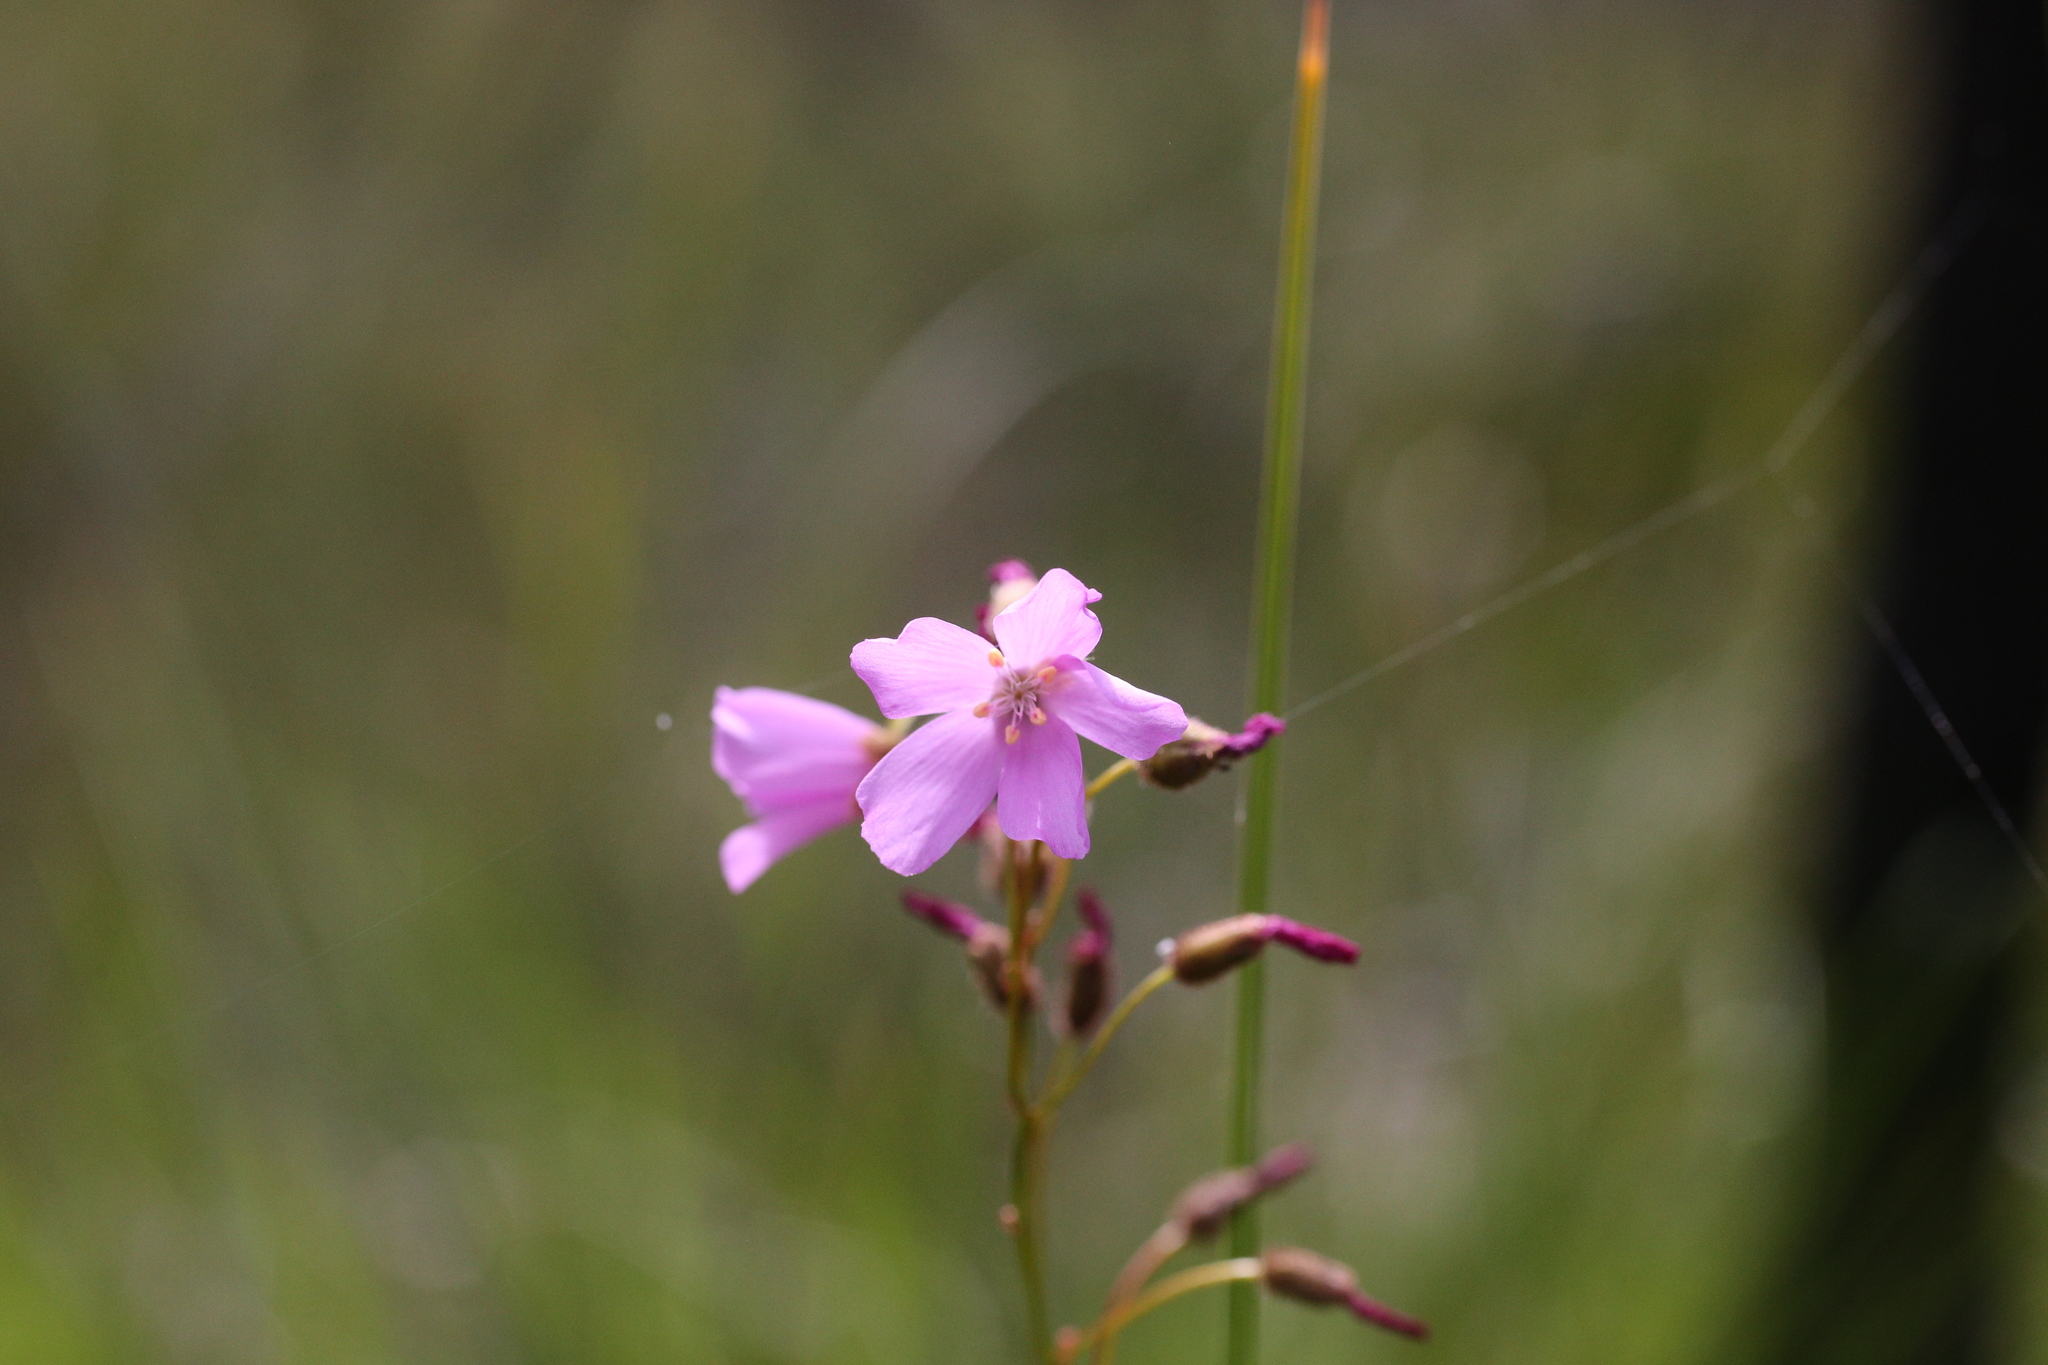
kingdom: Plantae
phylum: Tracheophyta
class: Magnoliopsida
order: Caryophyllales
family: Droseraceae
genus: Drosera
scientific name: Drosera
